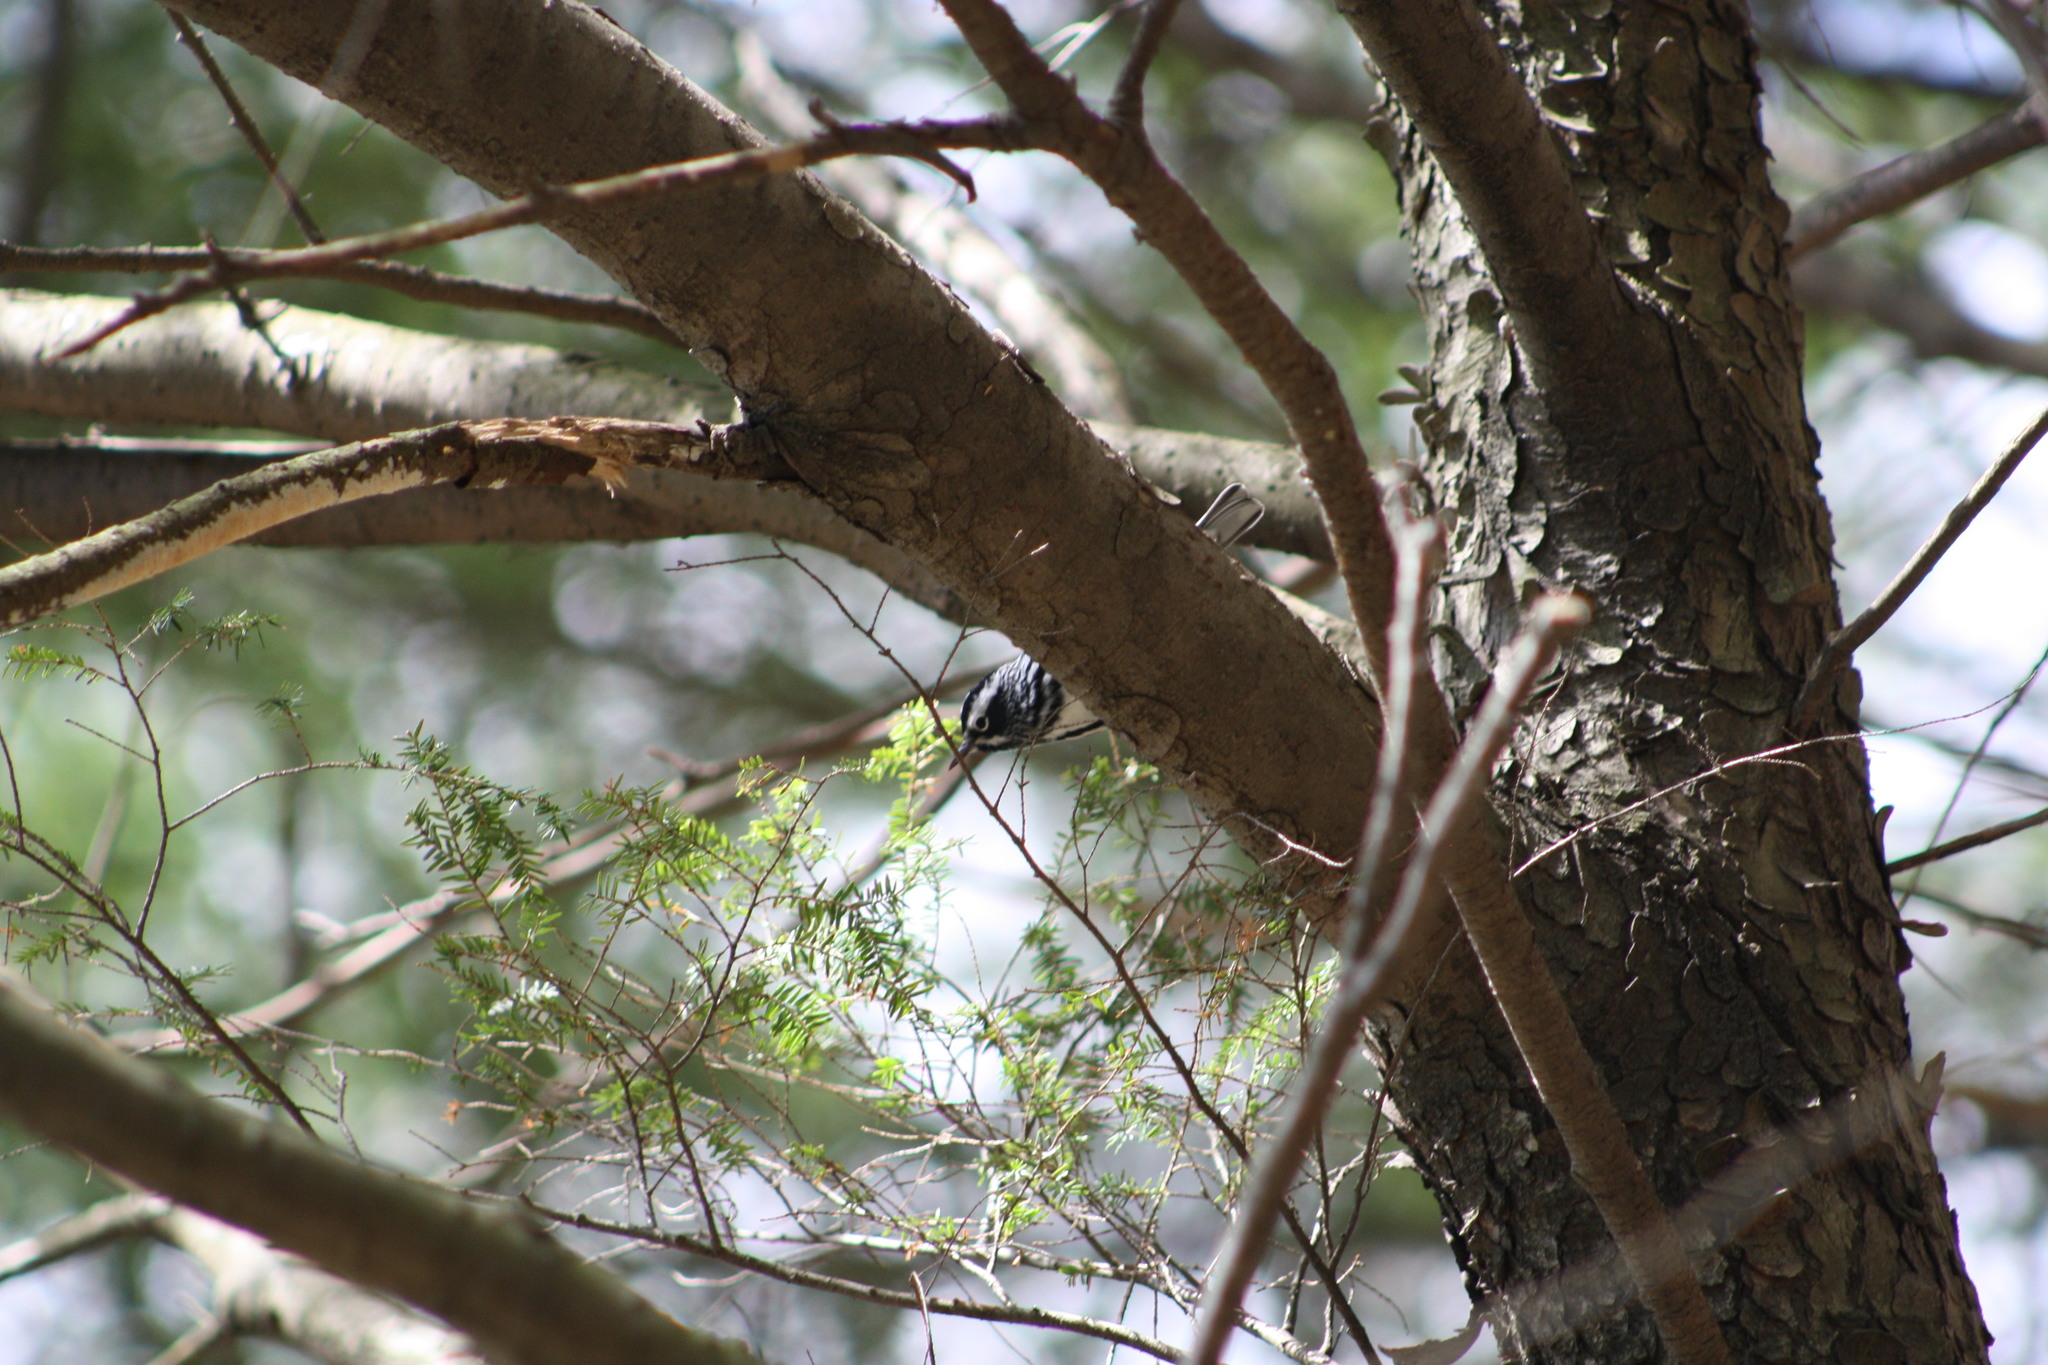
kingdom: Animalia
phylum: Chordata
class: Aves
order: Passeriformes
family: Parulidae
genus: Mniotilta
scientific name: Mniotilta varia
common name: Black-and-white warbler
